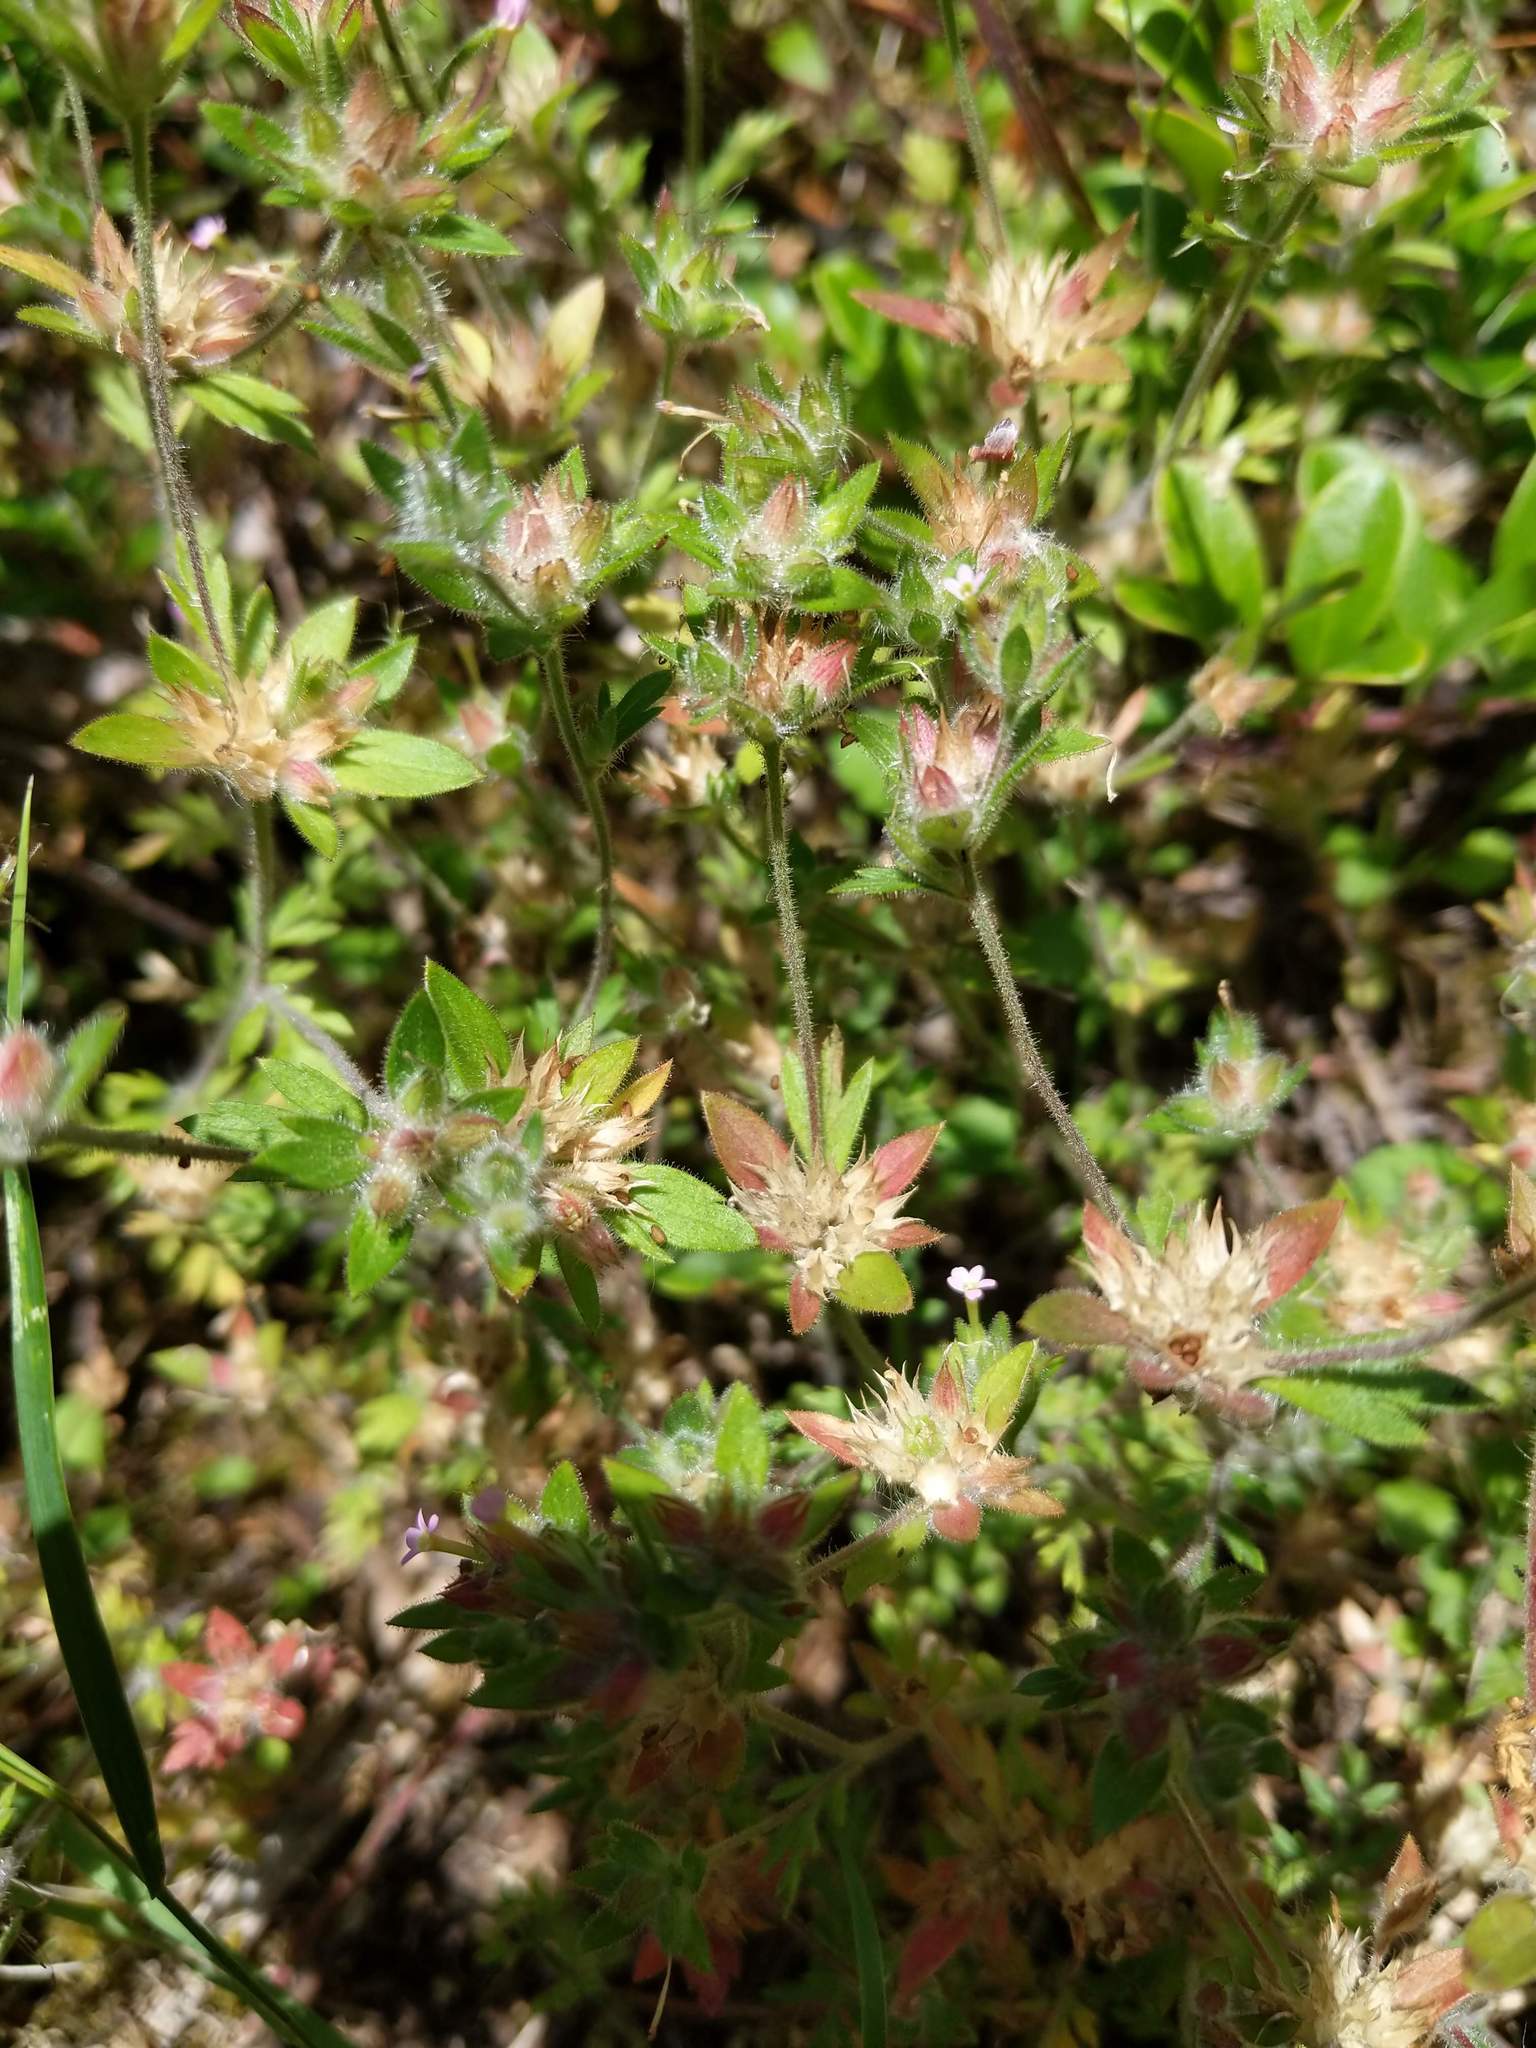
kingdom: Plantae
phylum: Tracheophyta
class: Magnoliopsida
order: Ericales
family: Polemoniaceae
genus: Collomia
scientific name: Collomia heterophylla
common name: Variable-leaved collomia
